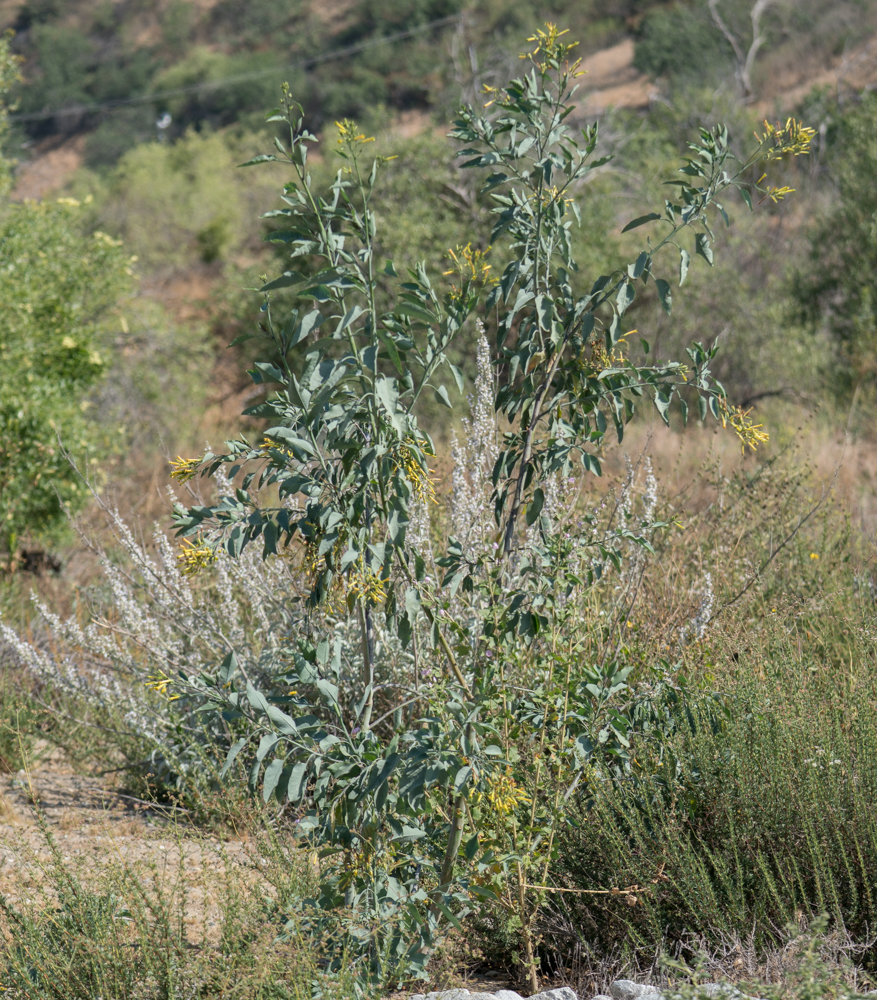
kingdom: Plantae
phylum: Tracheophyta
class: Magnoliopsida
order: Solanales
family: Solanaceae
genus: Nicotiana
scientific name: Nicotiana glauca
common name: Tree tobacco
